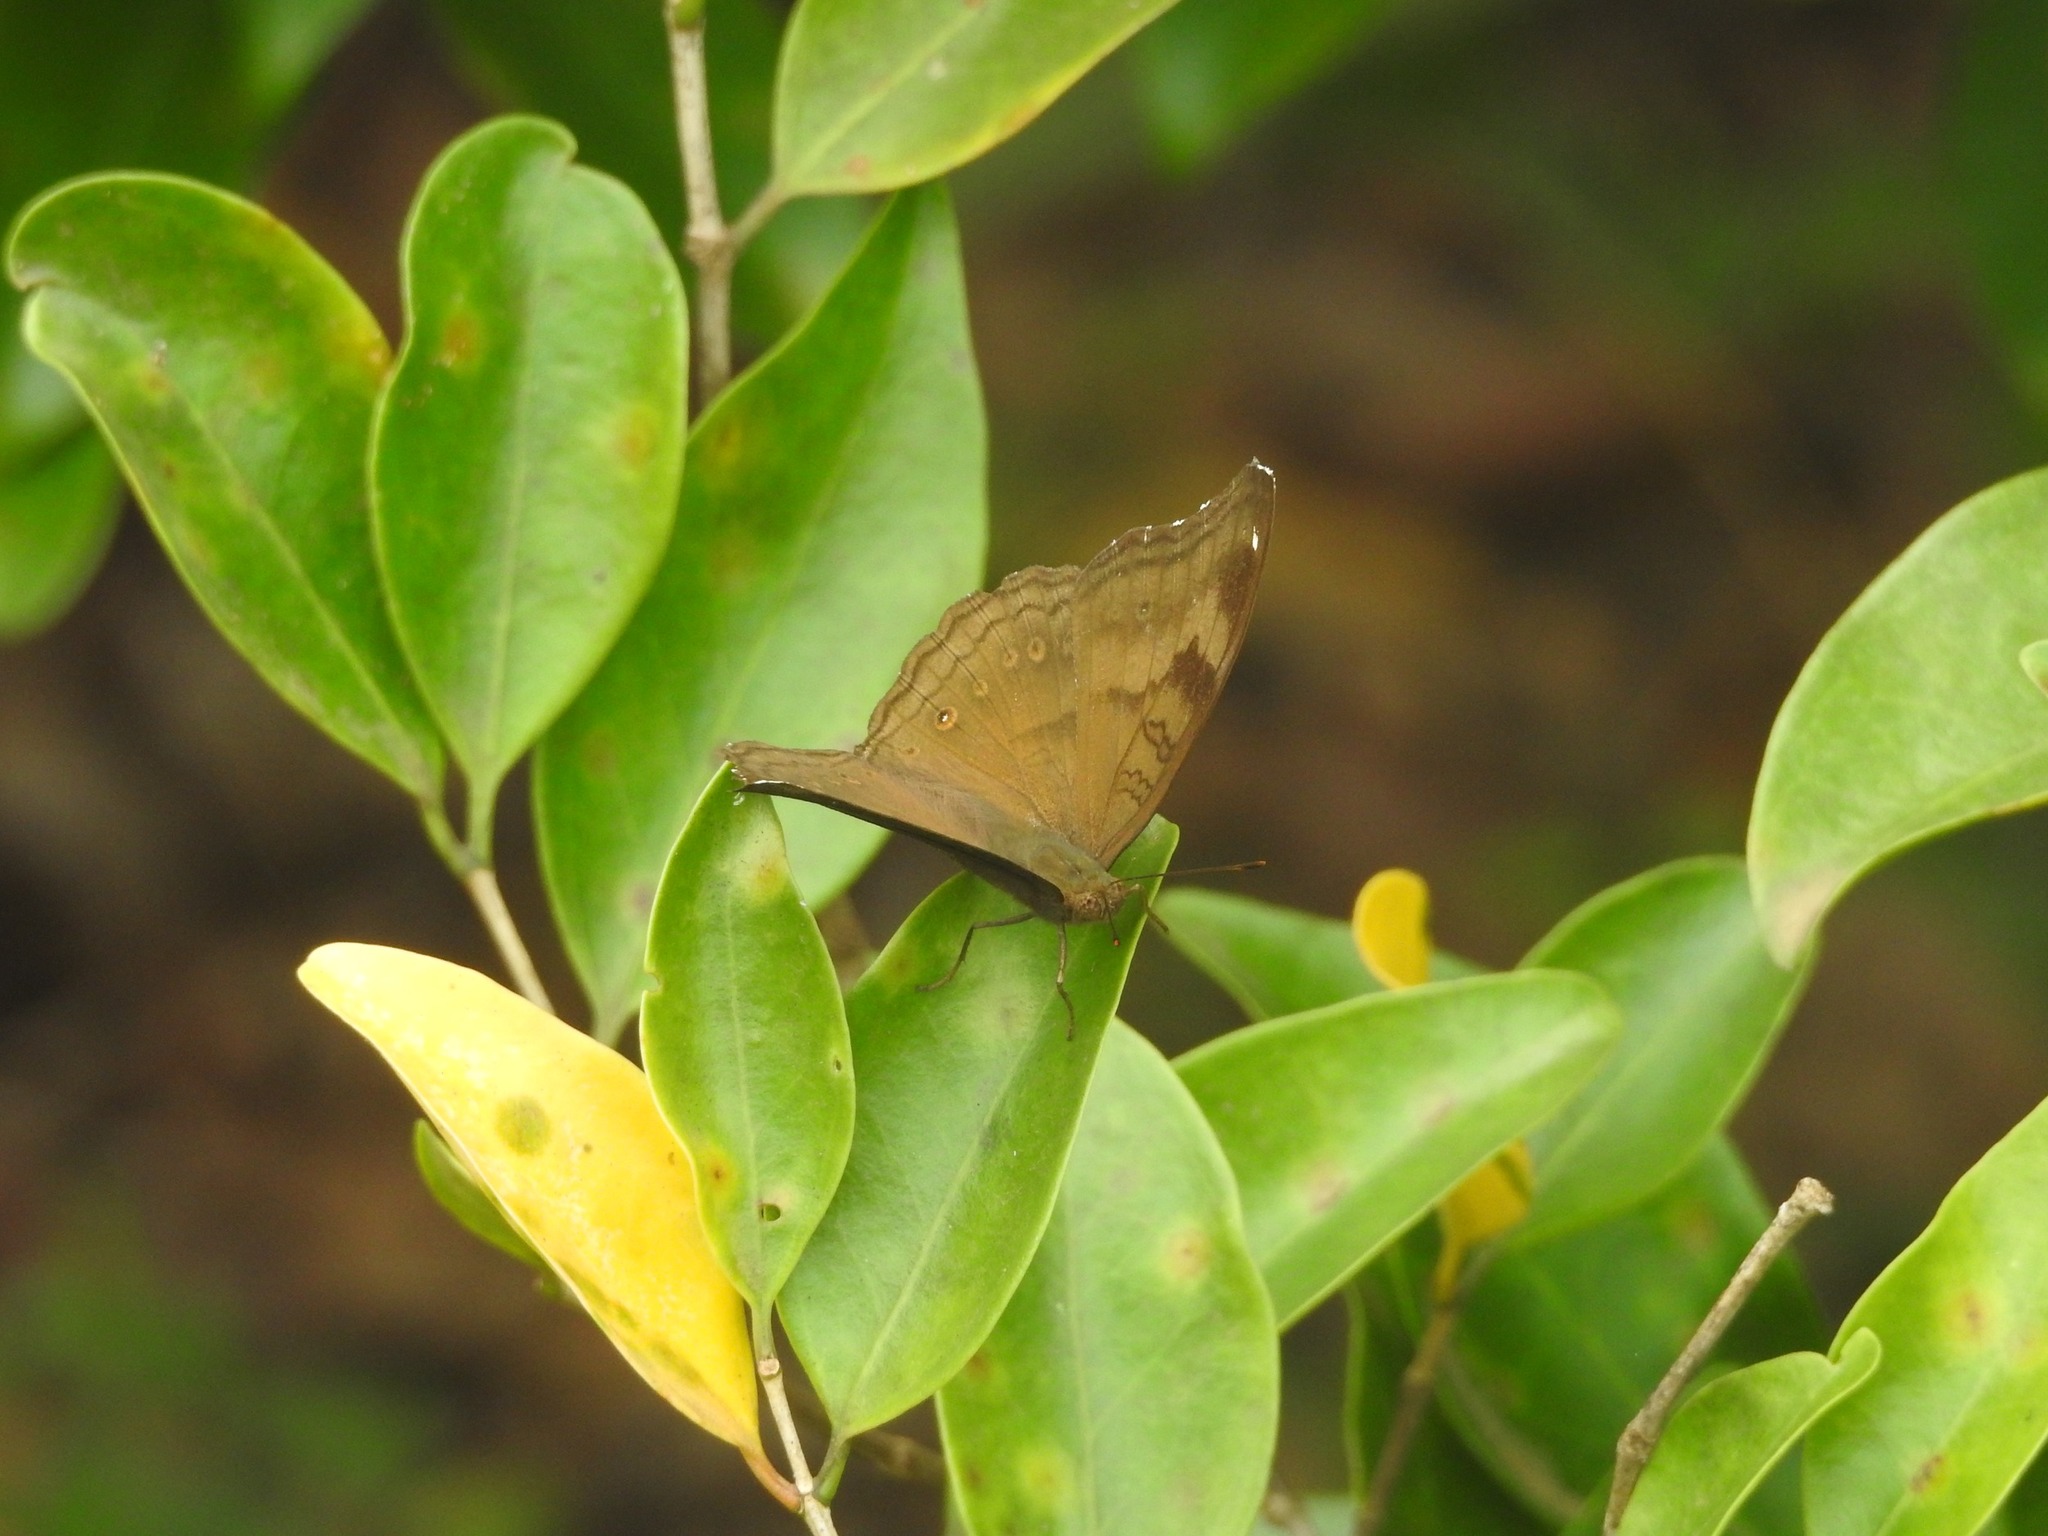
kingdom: Animalia
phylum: Arthropoda
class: Insecta
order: Lepidoptera
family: Nymphalidae
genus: Junonia
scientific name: Junonia iphita
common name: Chocolate pansy
